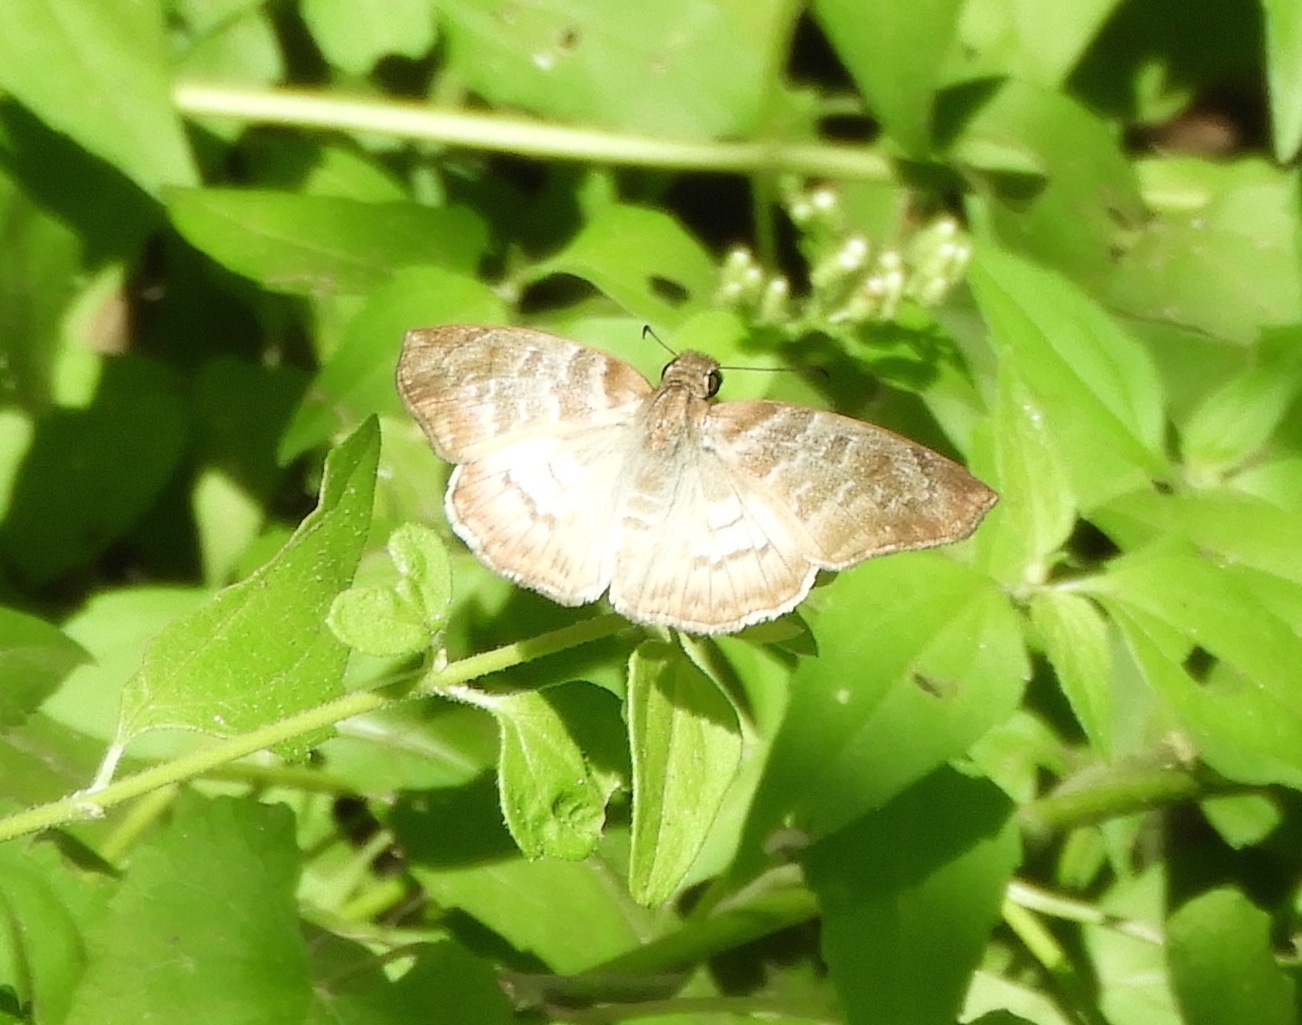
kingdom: Animalia
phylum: Arthropoda
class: Insecta
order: Lepidoptera
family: Hesperiidae
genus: Mylon
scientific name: Mylon pelopidas
